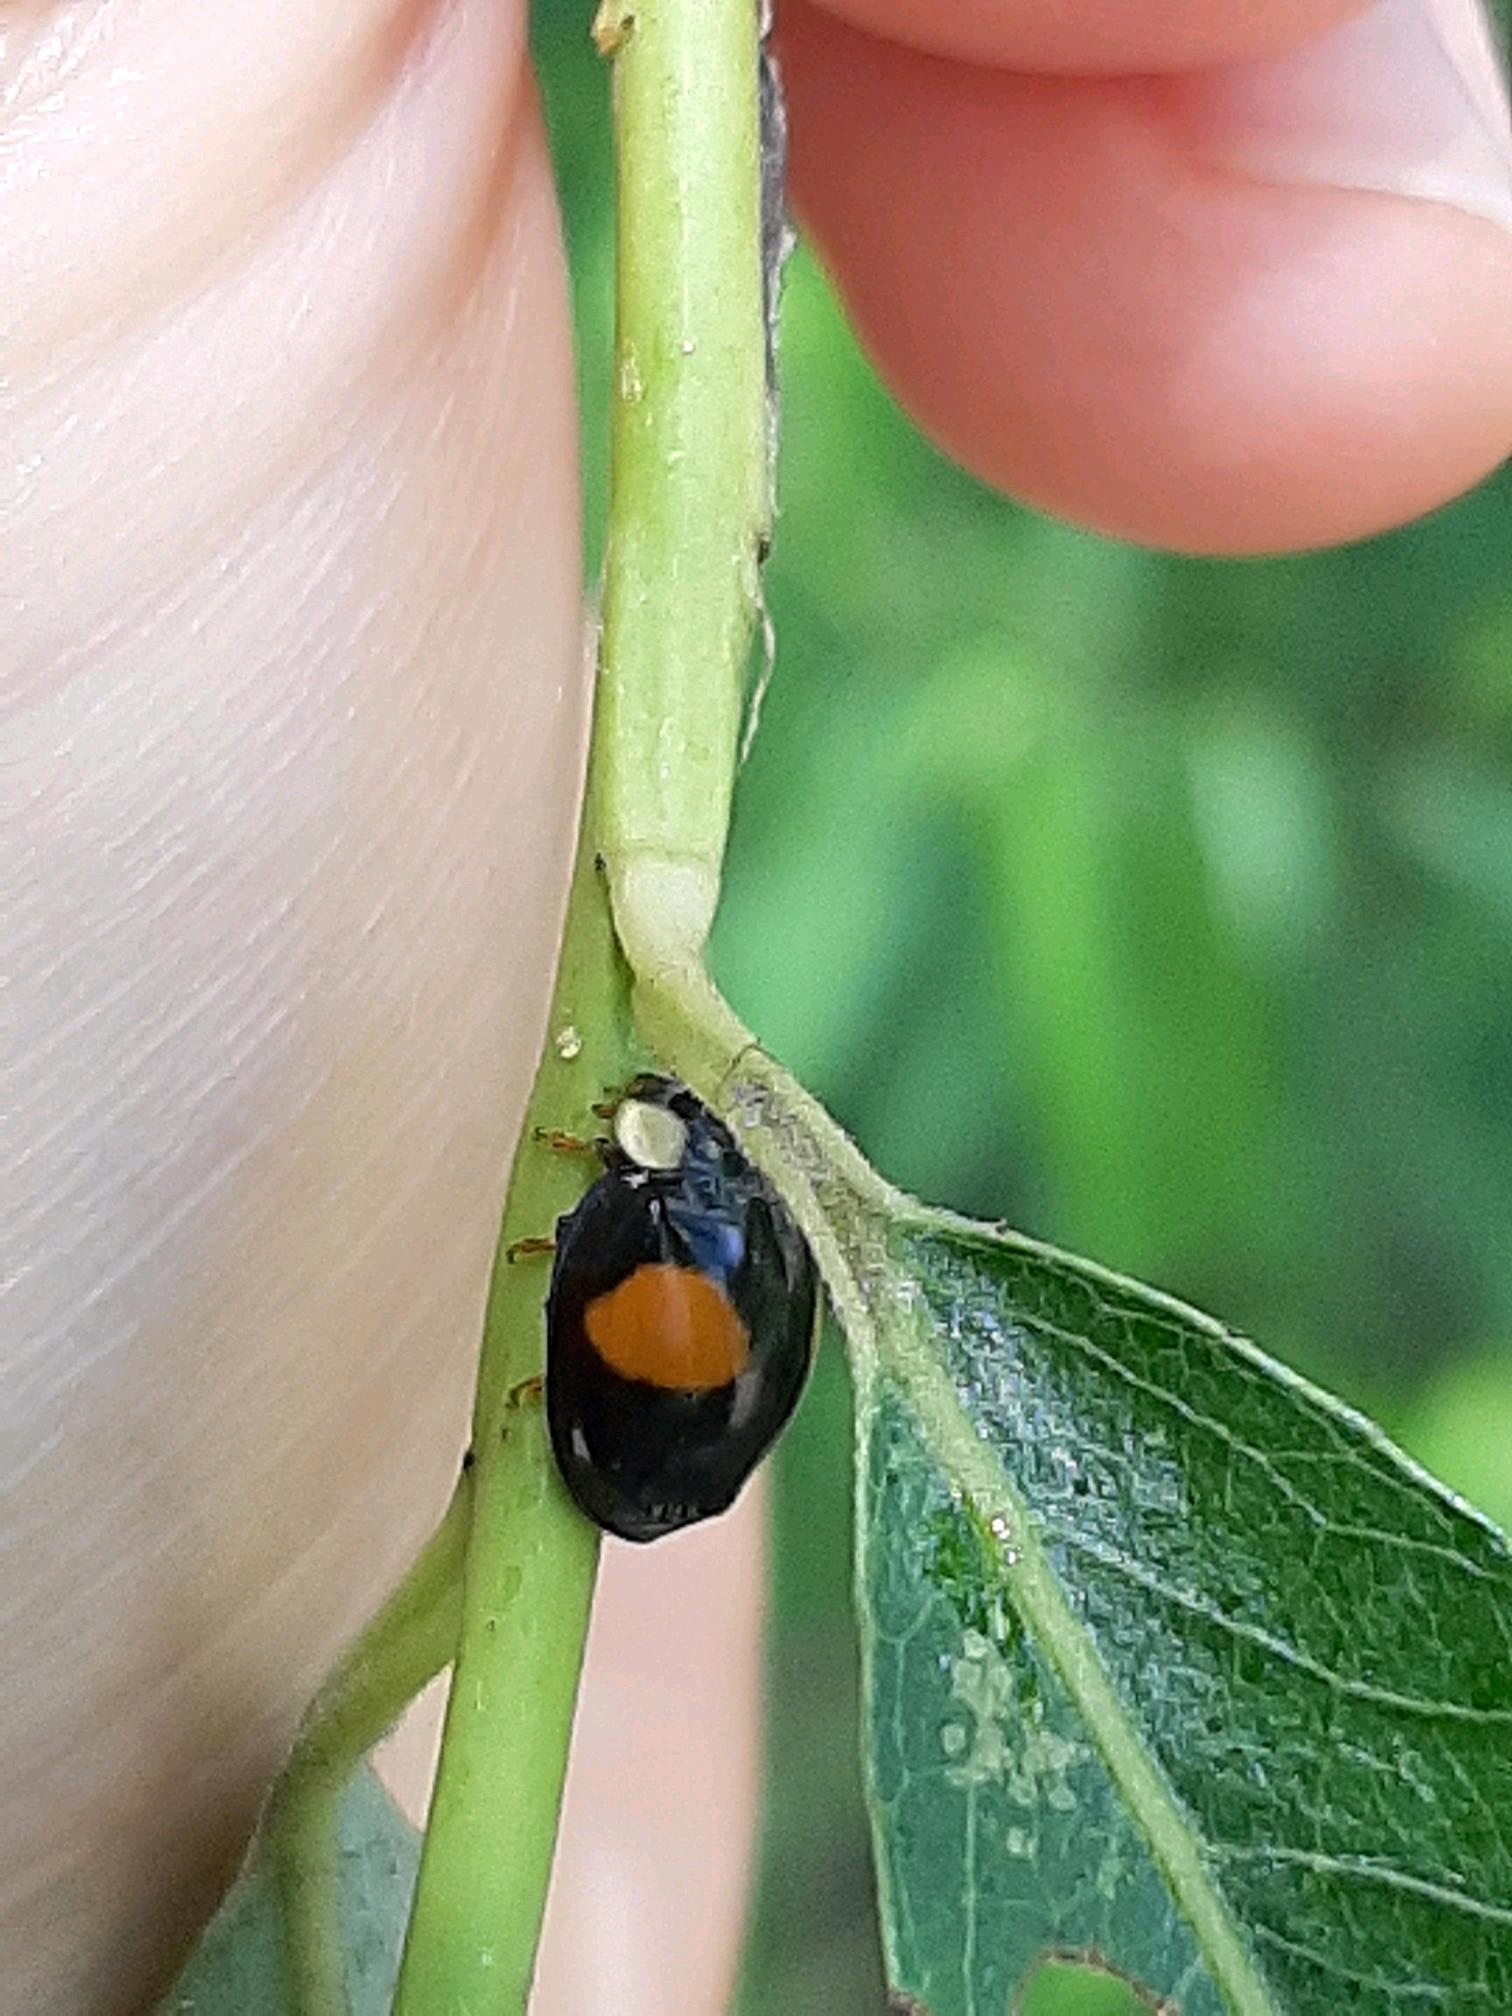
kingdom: Animalia
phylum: Arthropoda
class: Insecta
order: Coleoptera
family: Coccinellidae
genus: Harmonia
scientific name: Harmonia axyridis
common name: Harlequin ladybird
